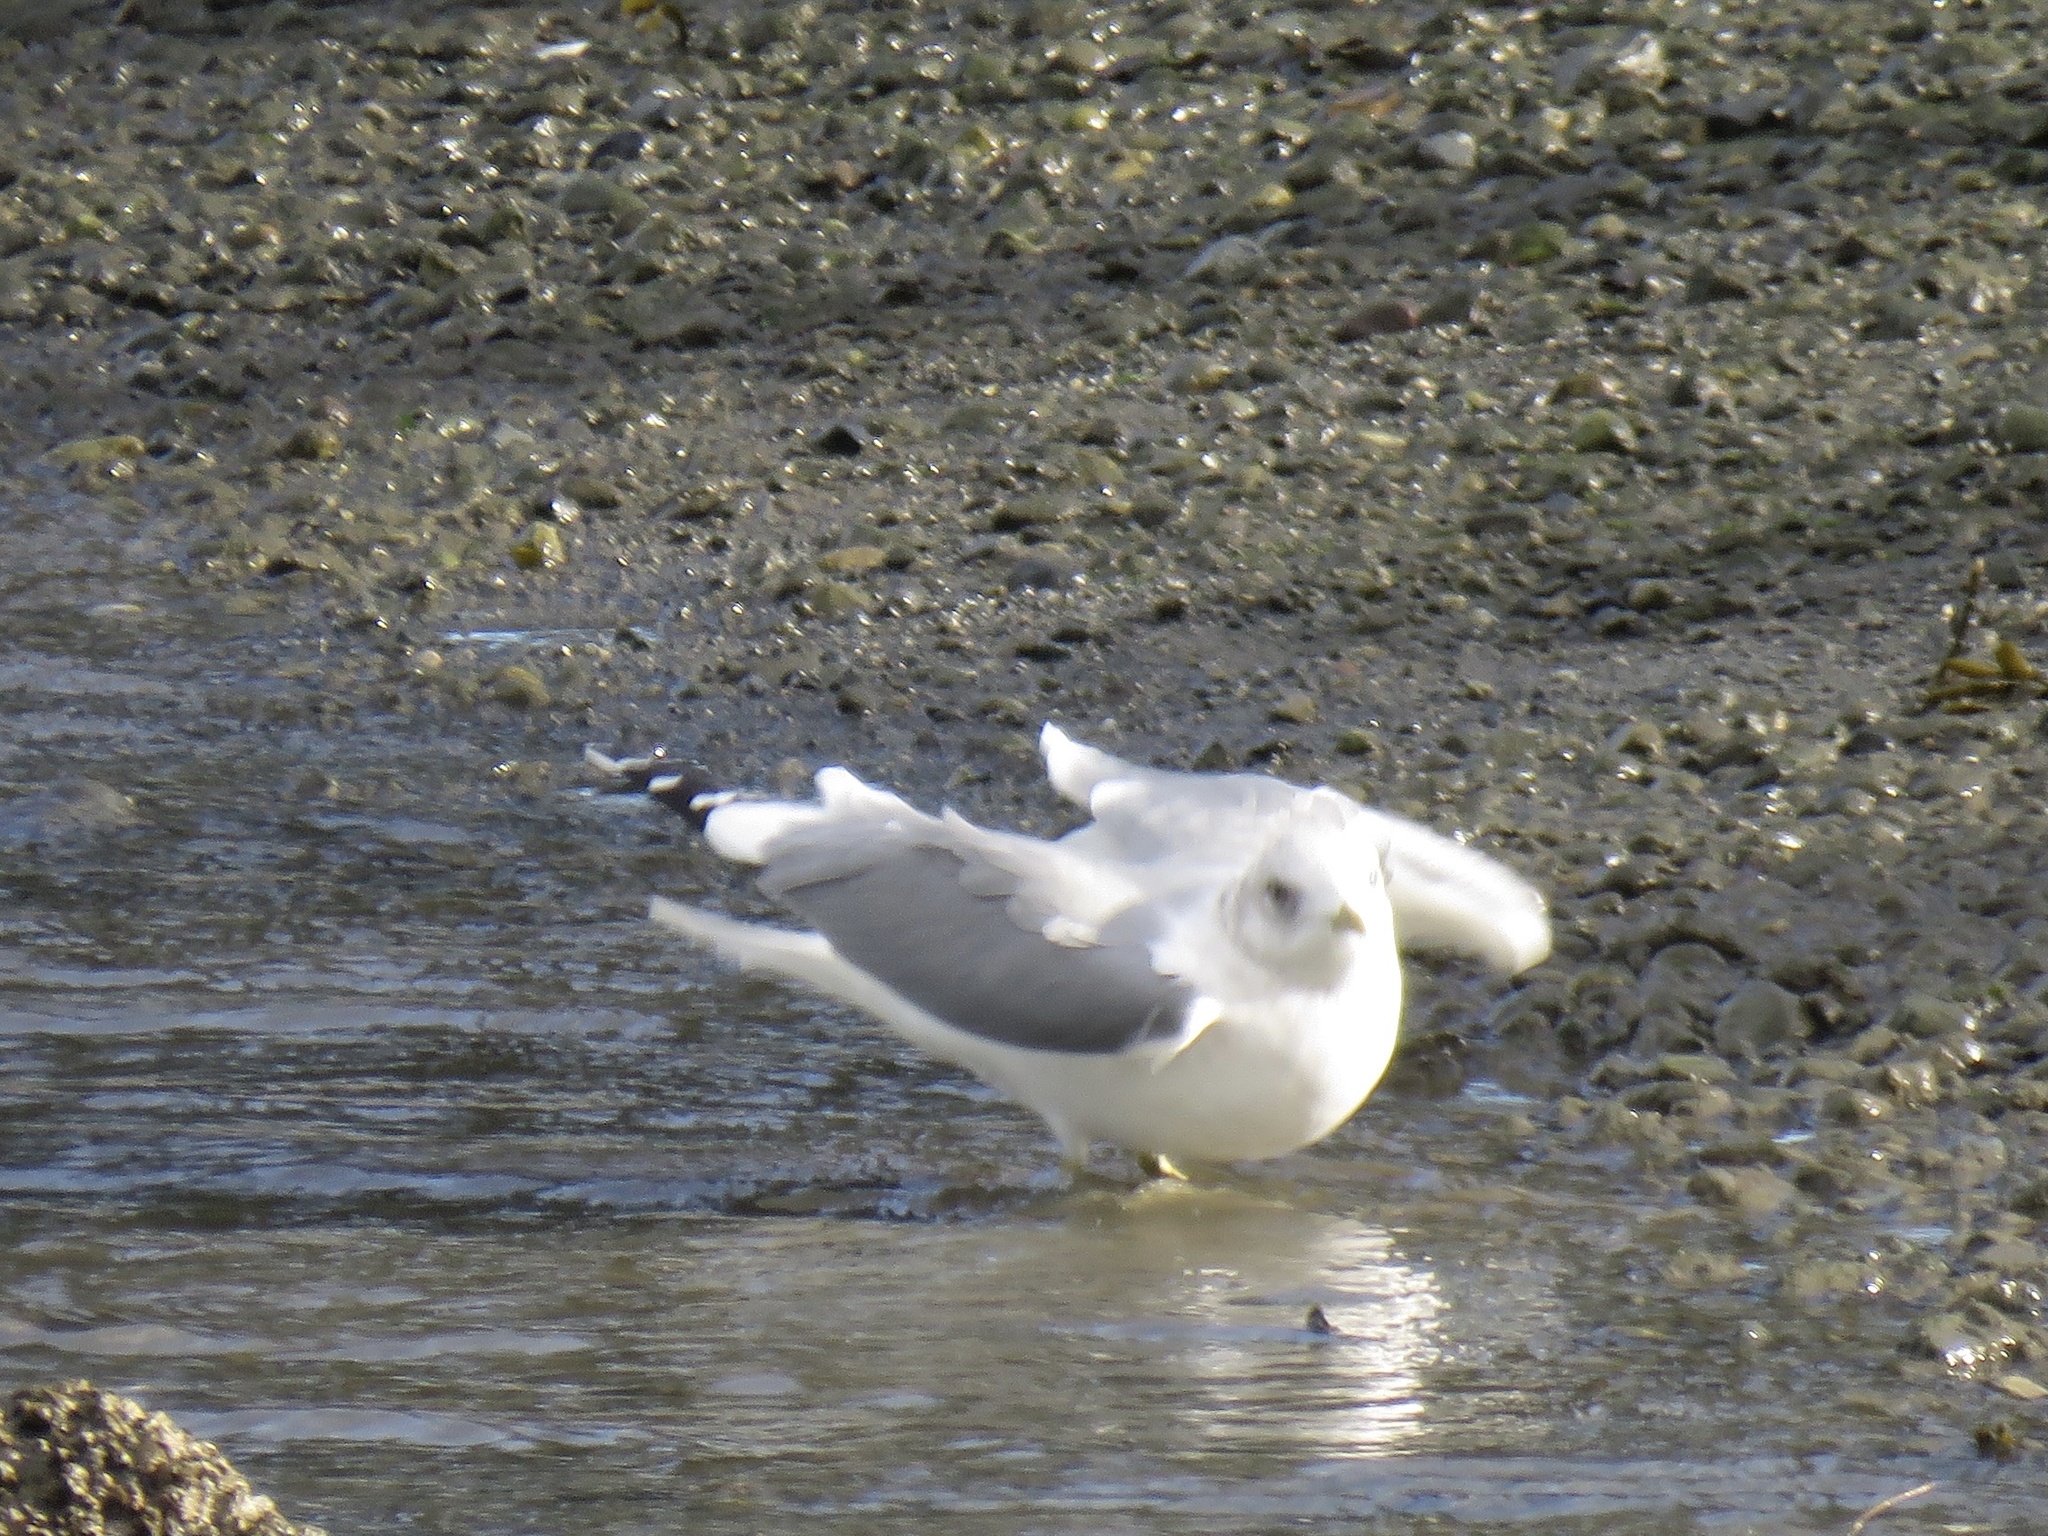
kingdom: Animalia
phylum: Chordata
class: Aves
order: Charadriiformes
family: Laridae
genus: Larus
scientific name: Larus brachyrhynchus
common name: Short-billed gull
